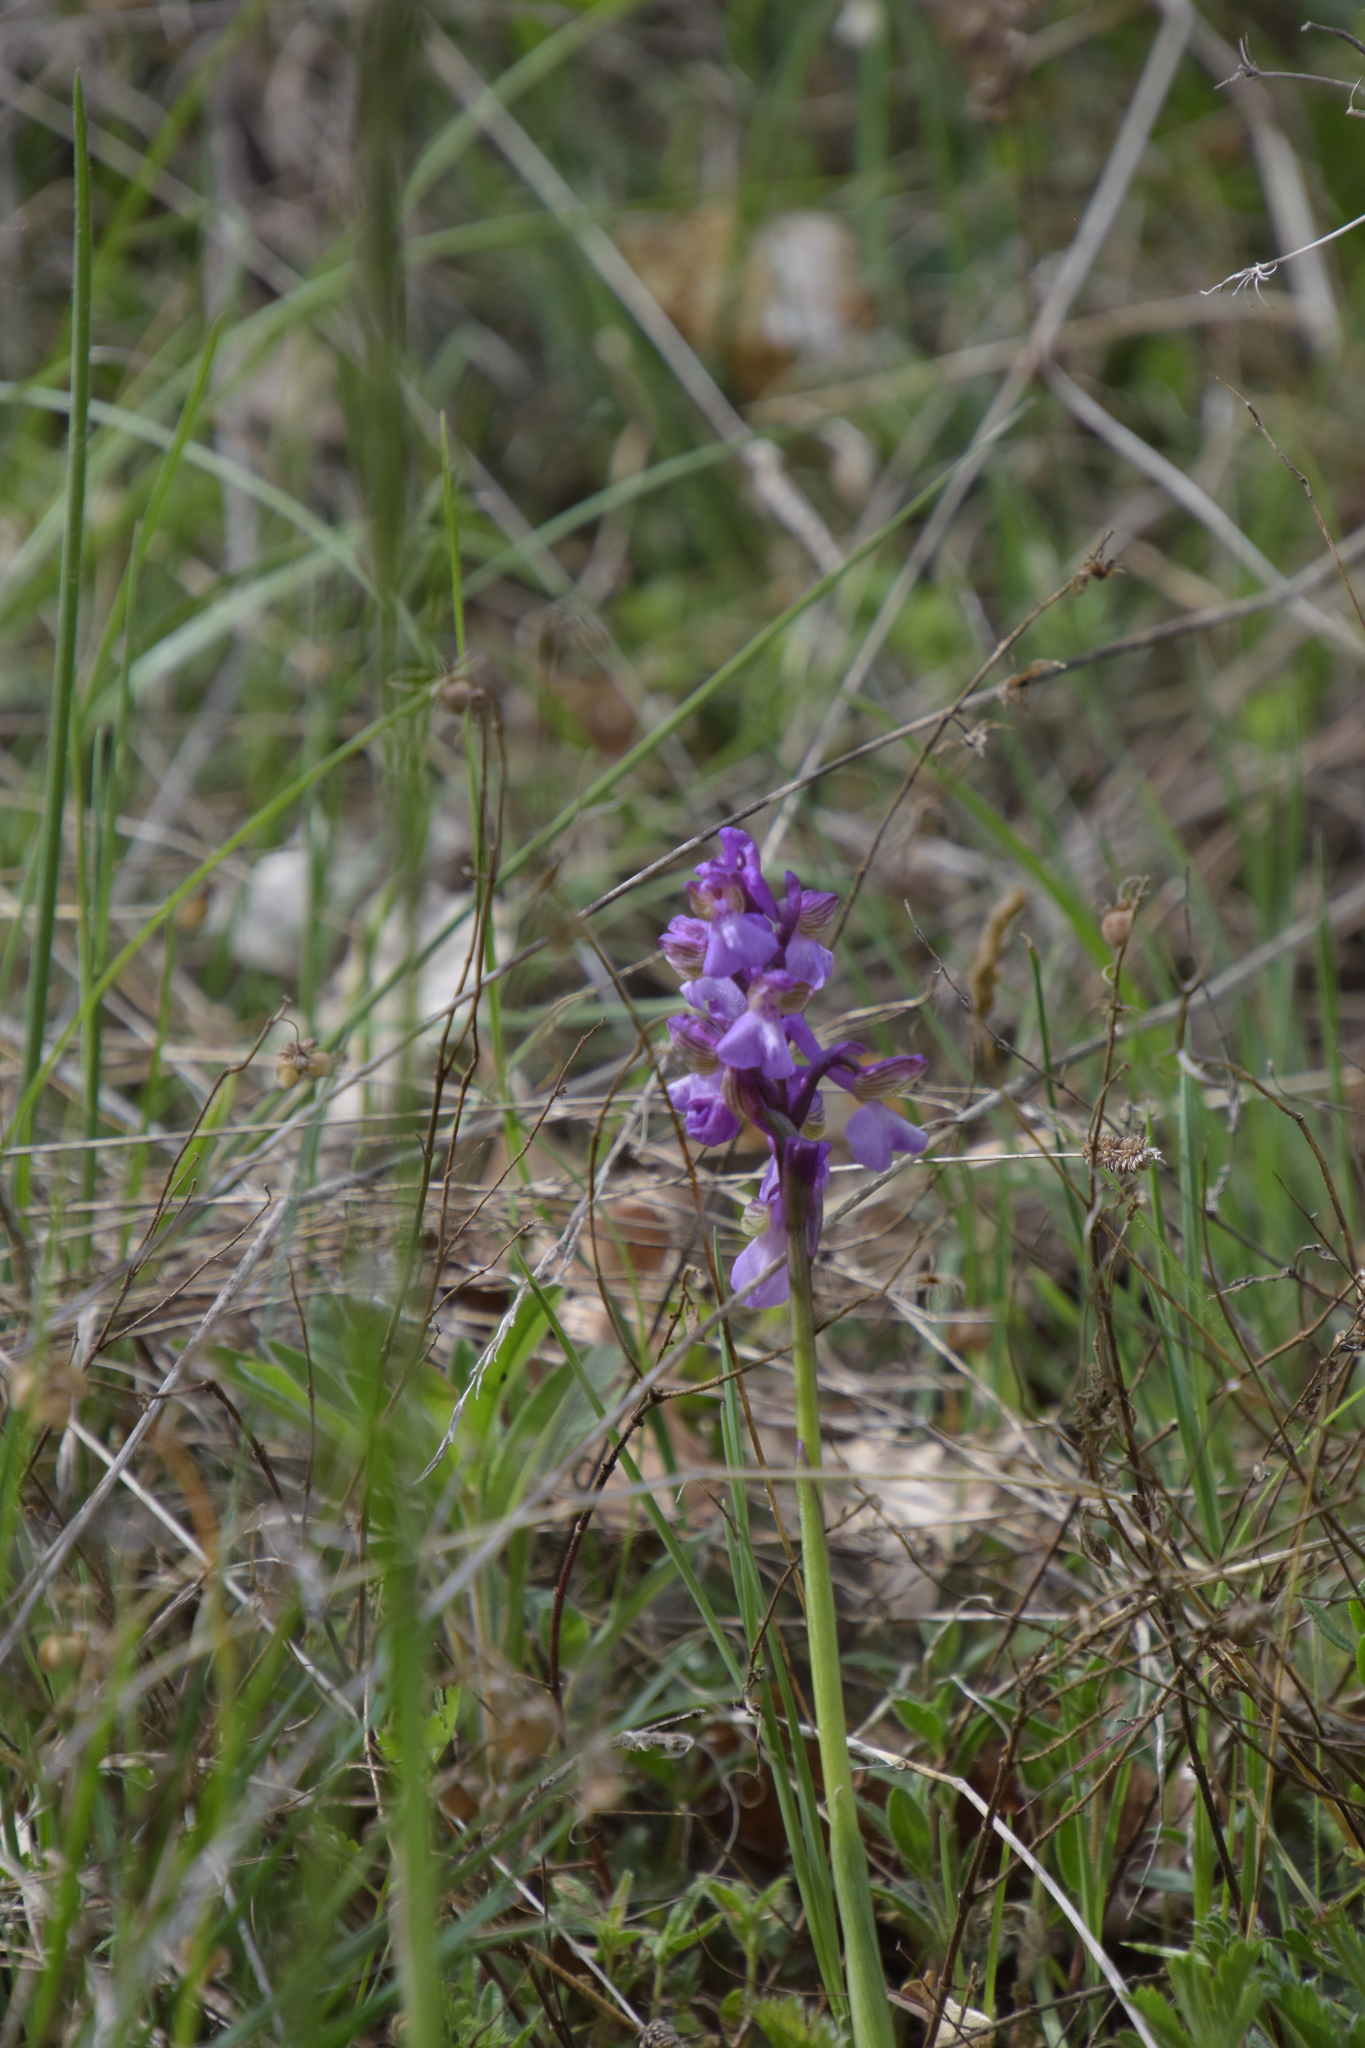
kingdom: Plantae
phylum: Tracheophyta
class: Liliopsida
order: Asparagales
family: Orchidaceae
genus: Anacamptis
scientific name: Anacamptis morio
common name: Green-winged orchid
